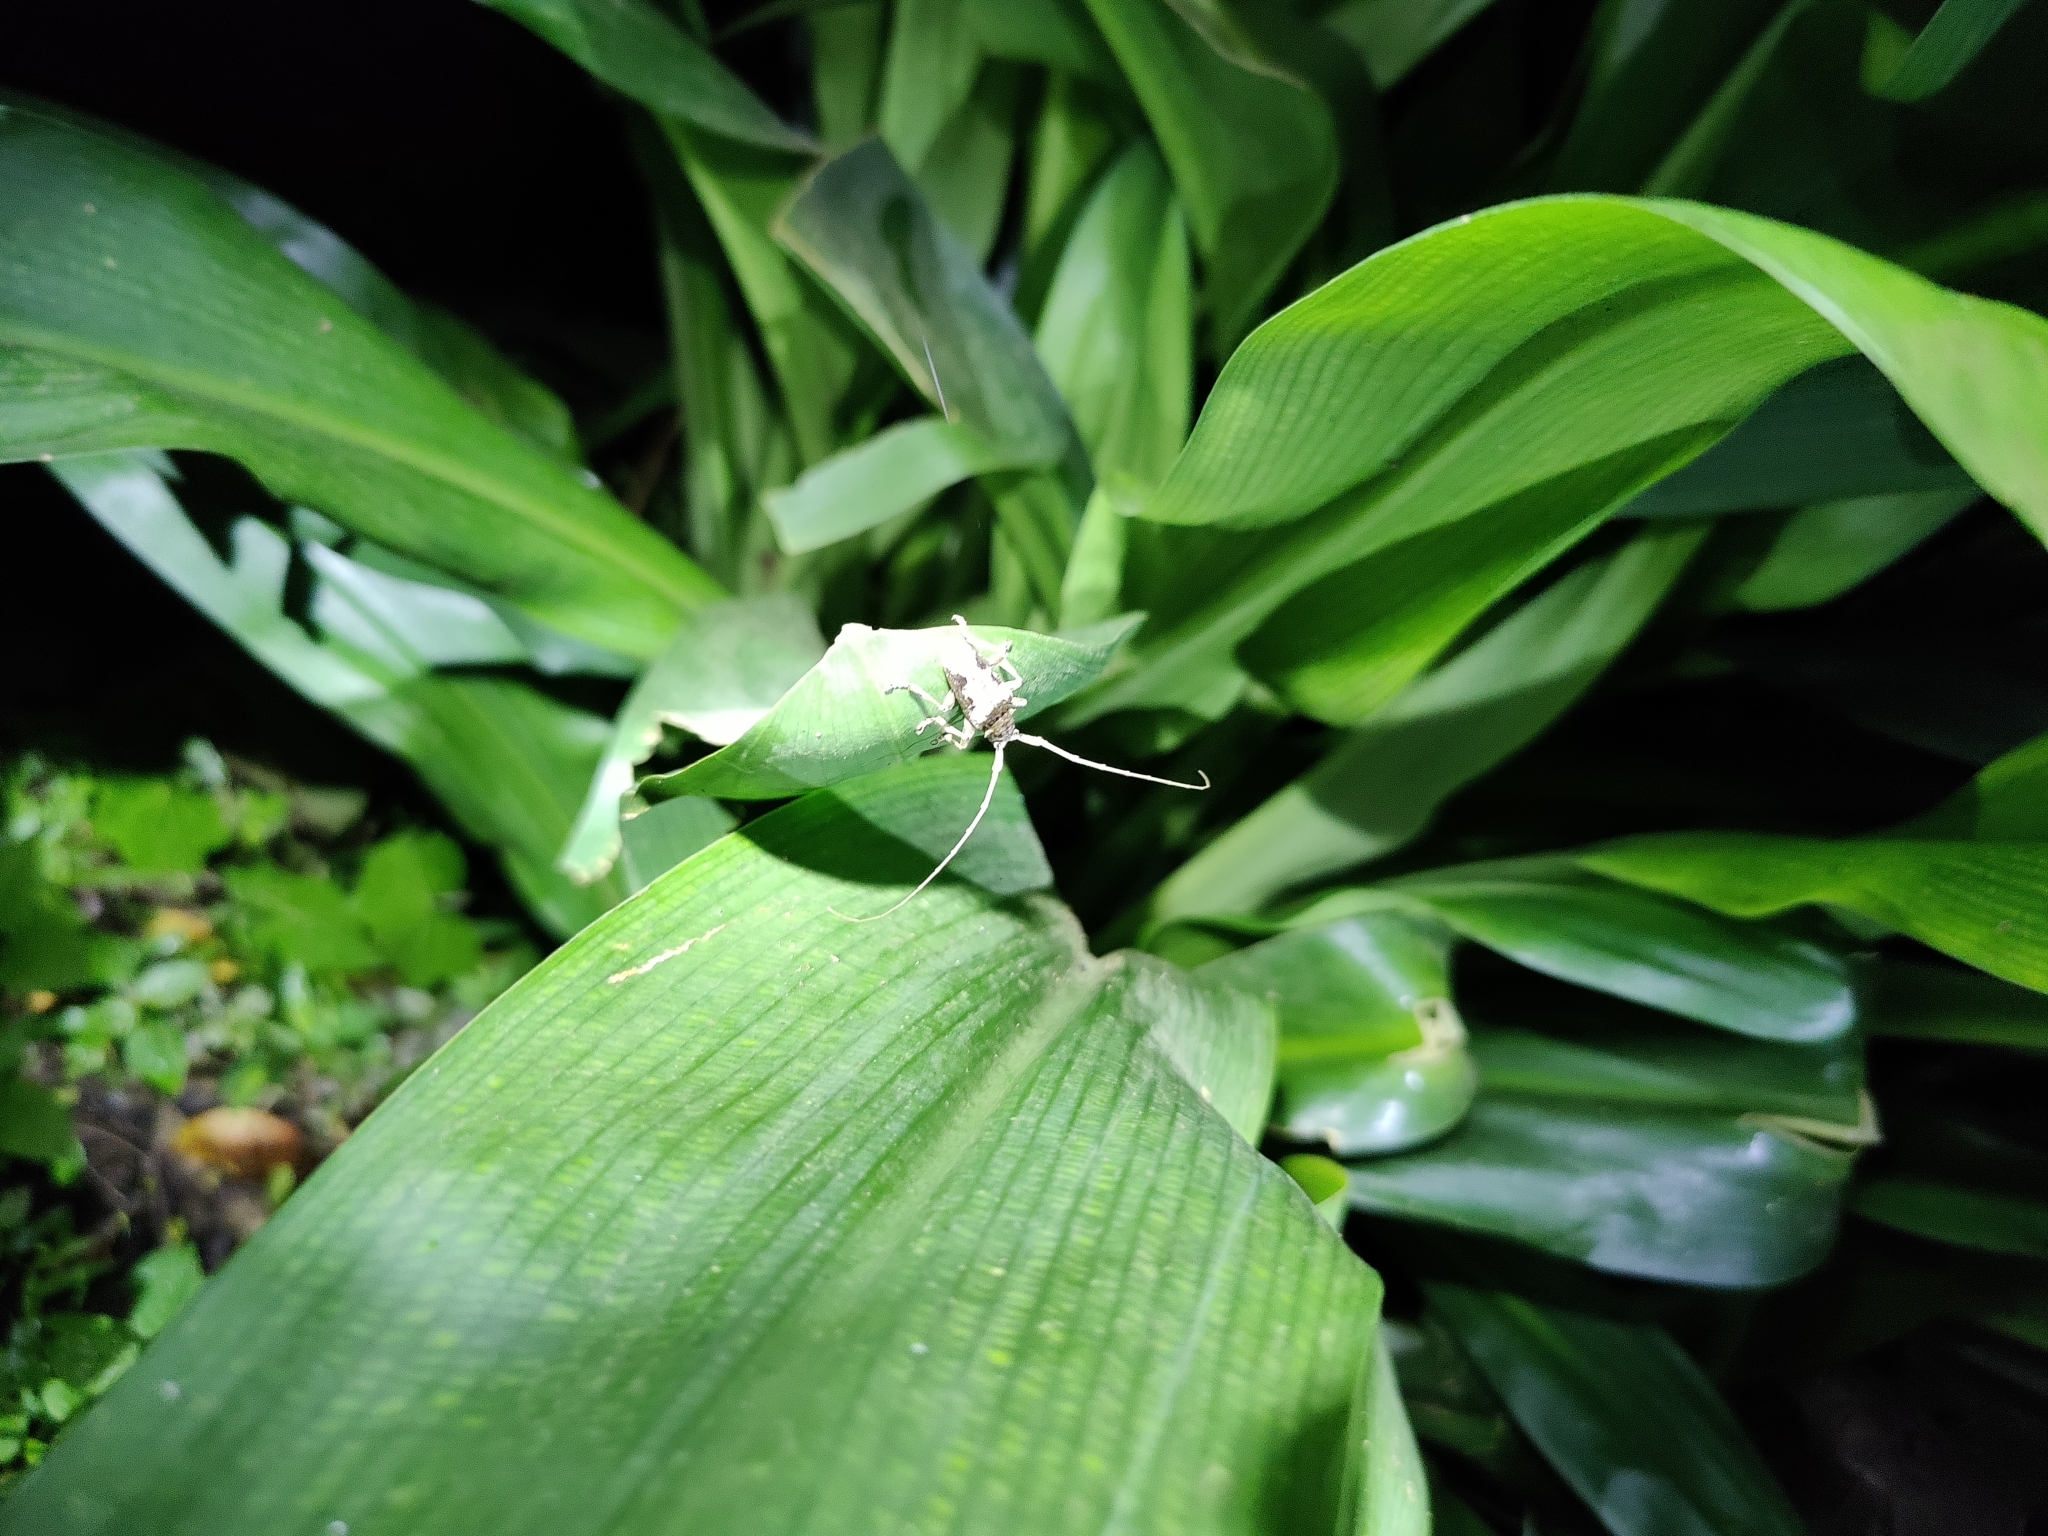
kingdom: Animalia
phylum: Arthropoda
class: Insecta
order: Coleoptera
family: Cerambycidae
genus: Acalolepta
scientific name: Acalolepta nivosa
